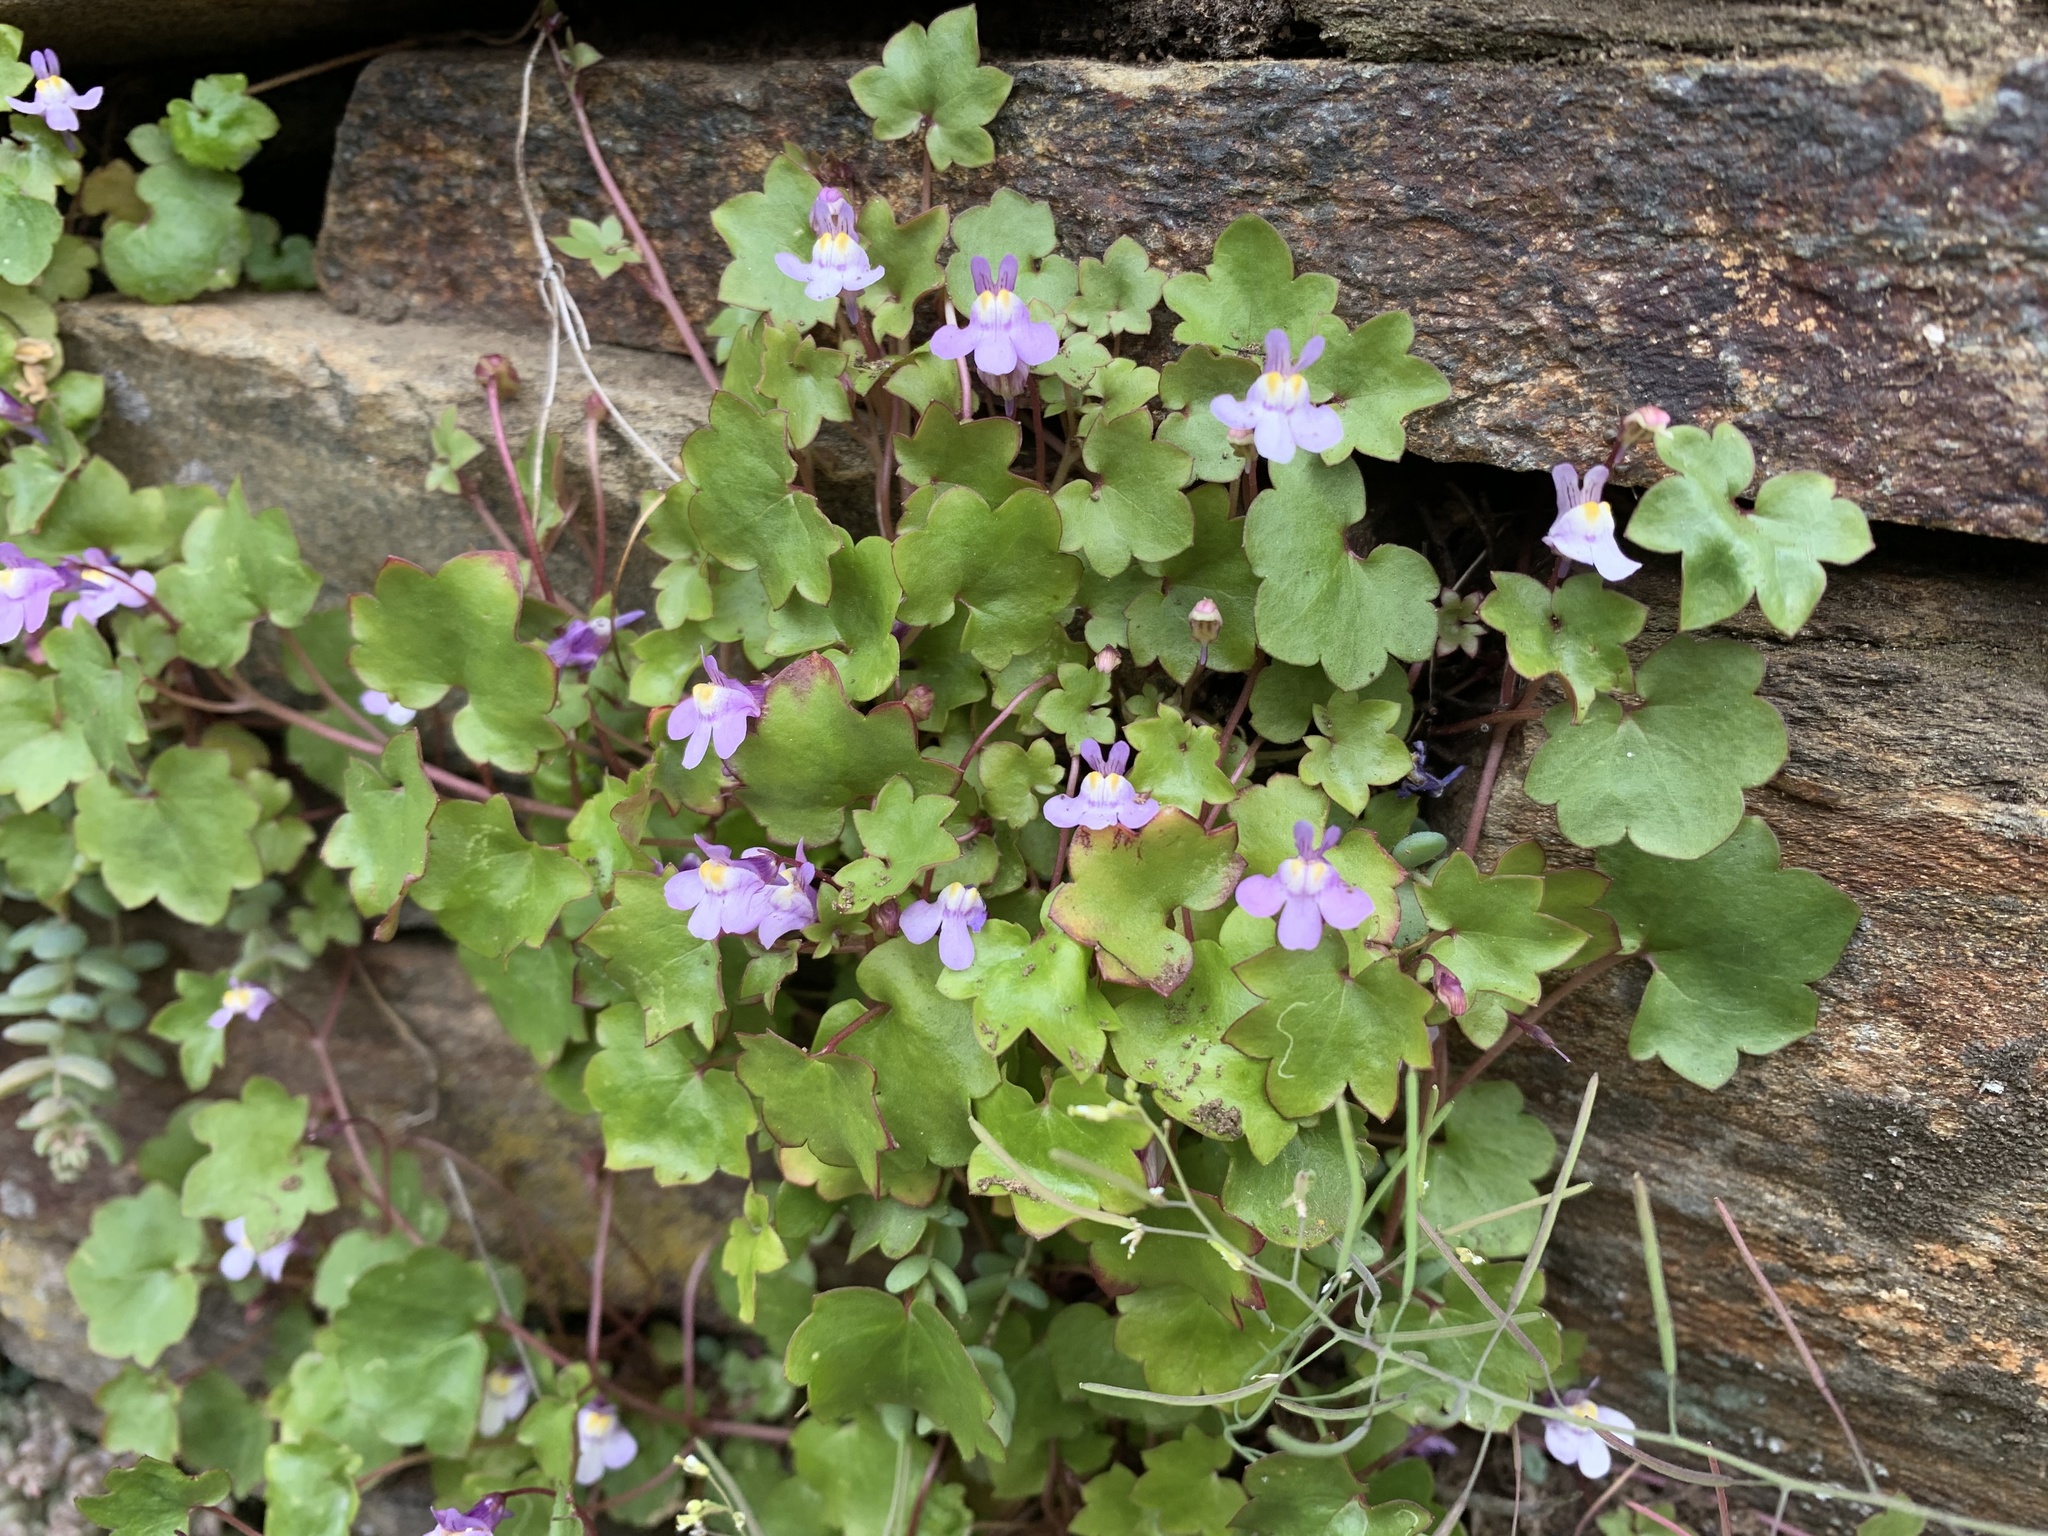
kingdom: Plantae
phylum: Tracheophyta
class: Magnoliopsida
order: Lamiales
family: Plantaginaceae
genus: Cymbalaria
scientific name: Cymbalaria muralis
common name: Ivy-leaved toadflax
